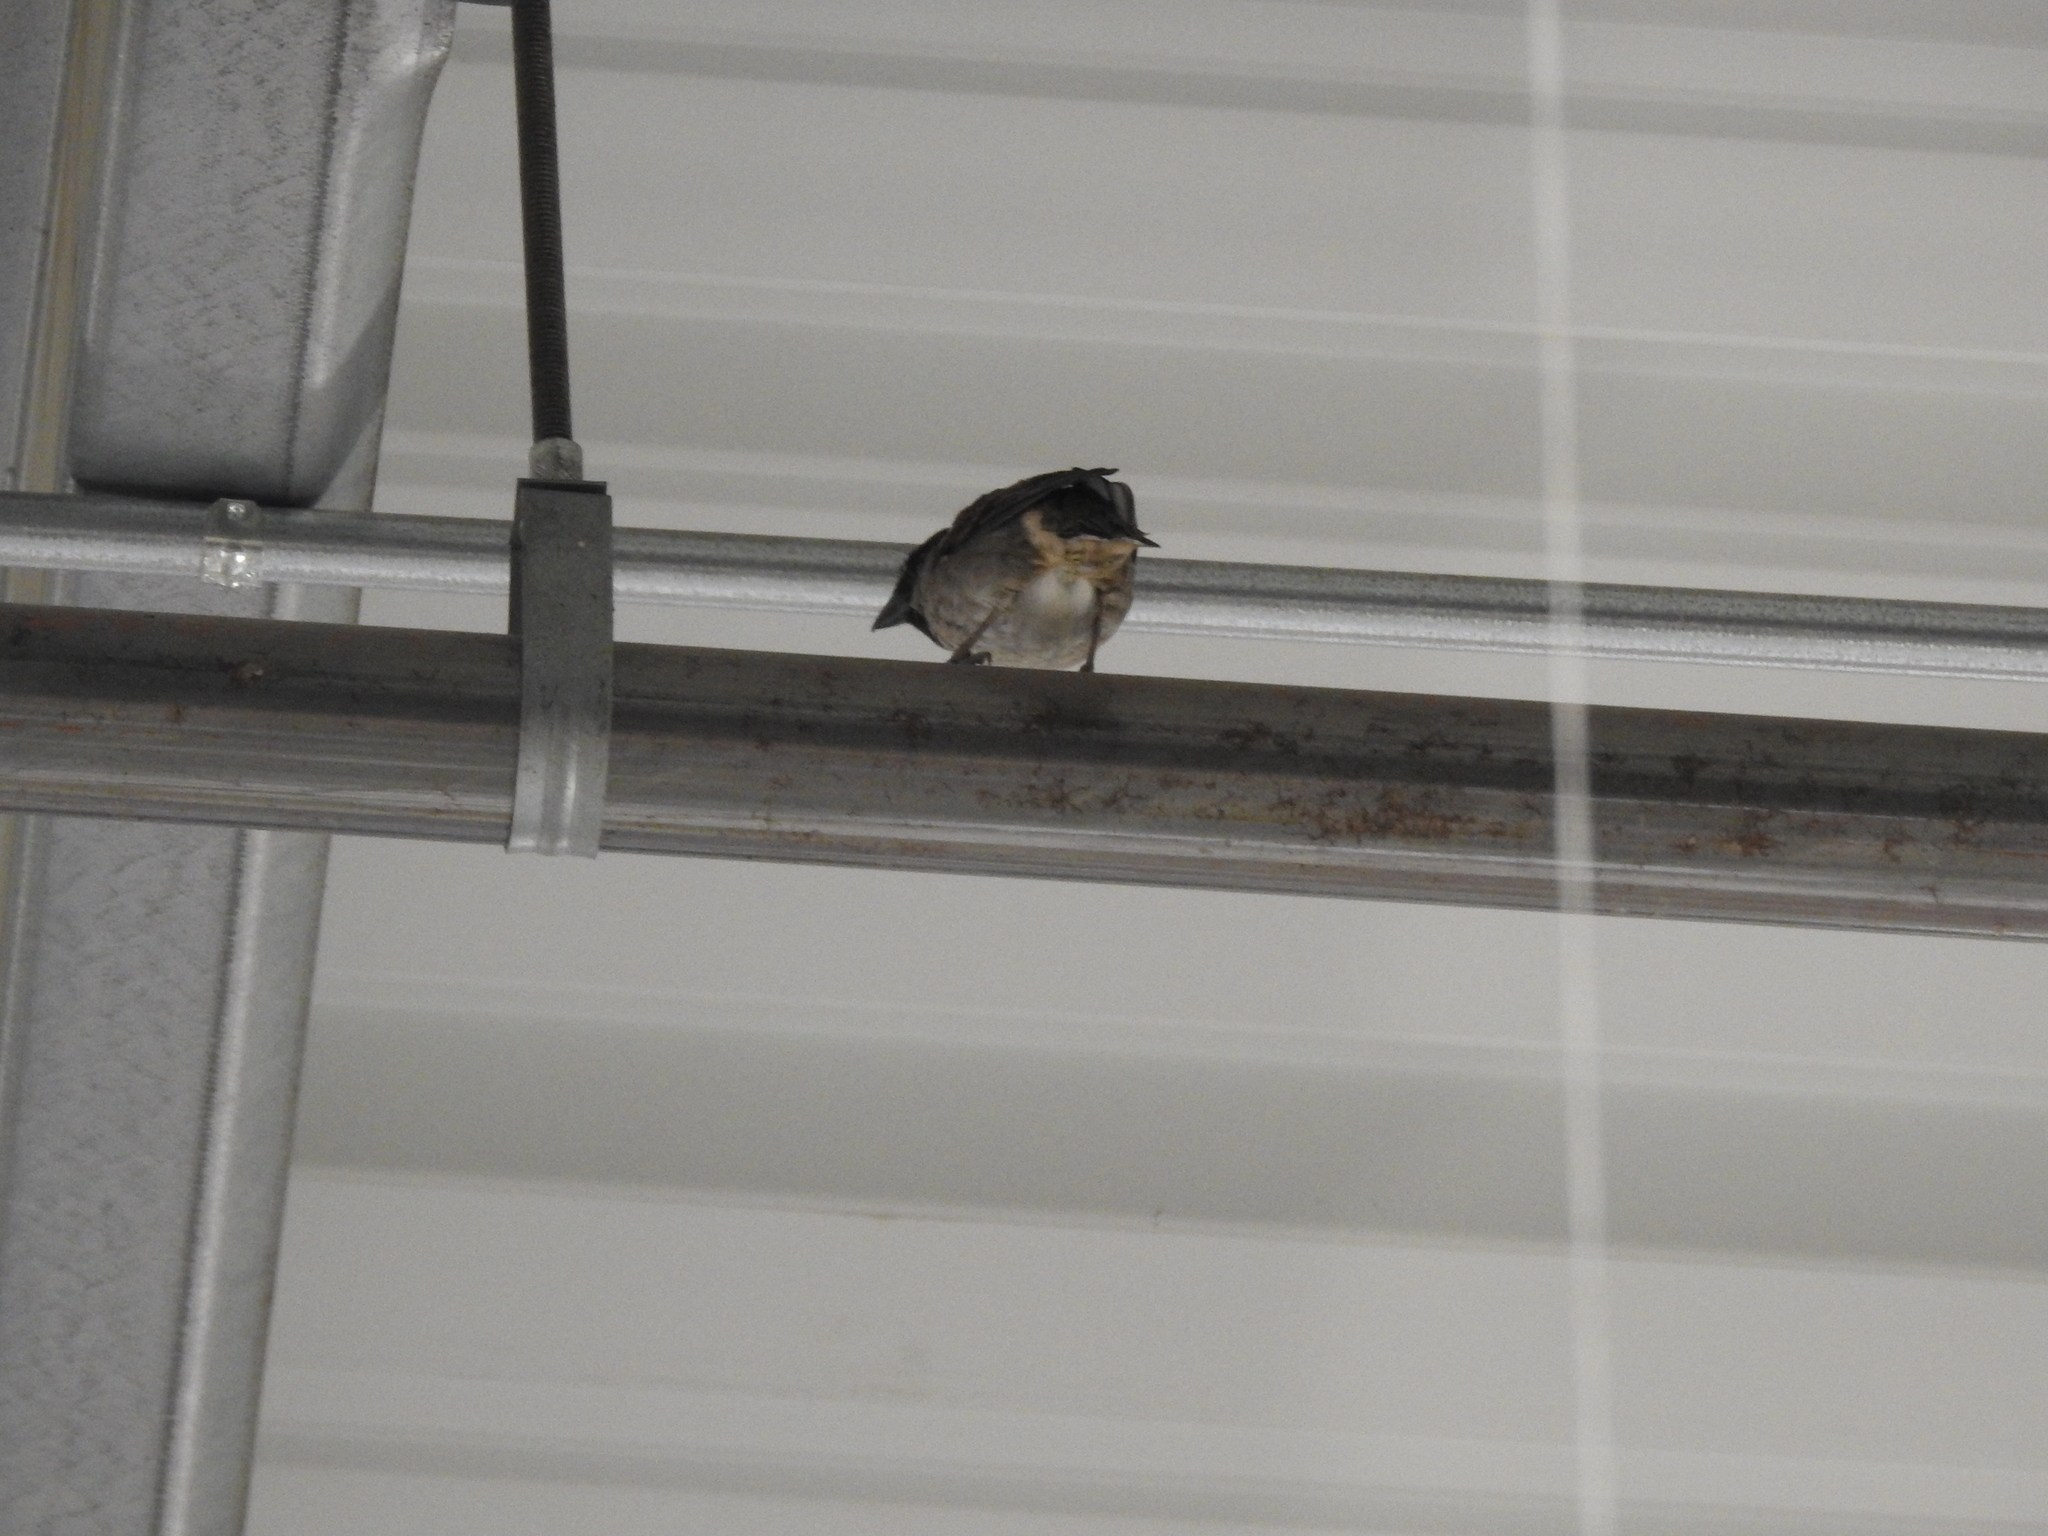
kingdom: Animalia
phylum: Chordata
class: Aves
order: Passeriformes
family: Passeridae
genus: Passer
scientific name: Passer domesticus
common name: House sparrow
